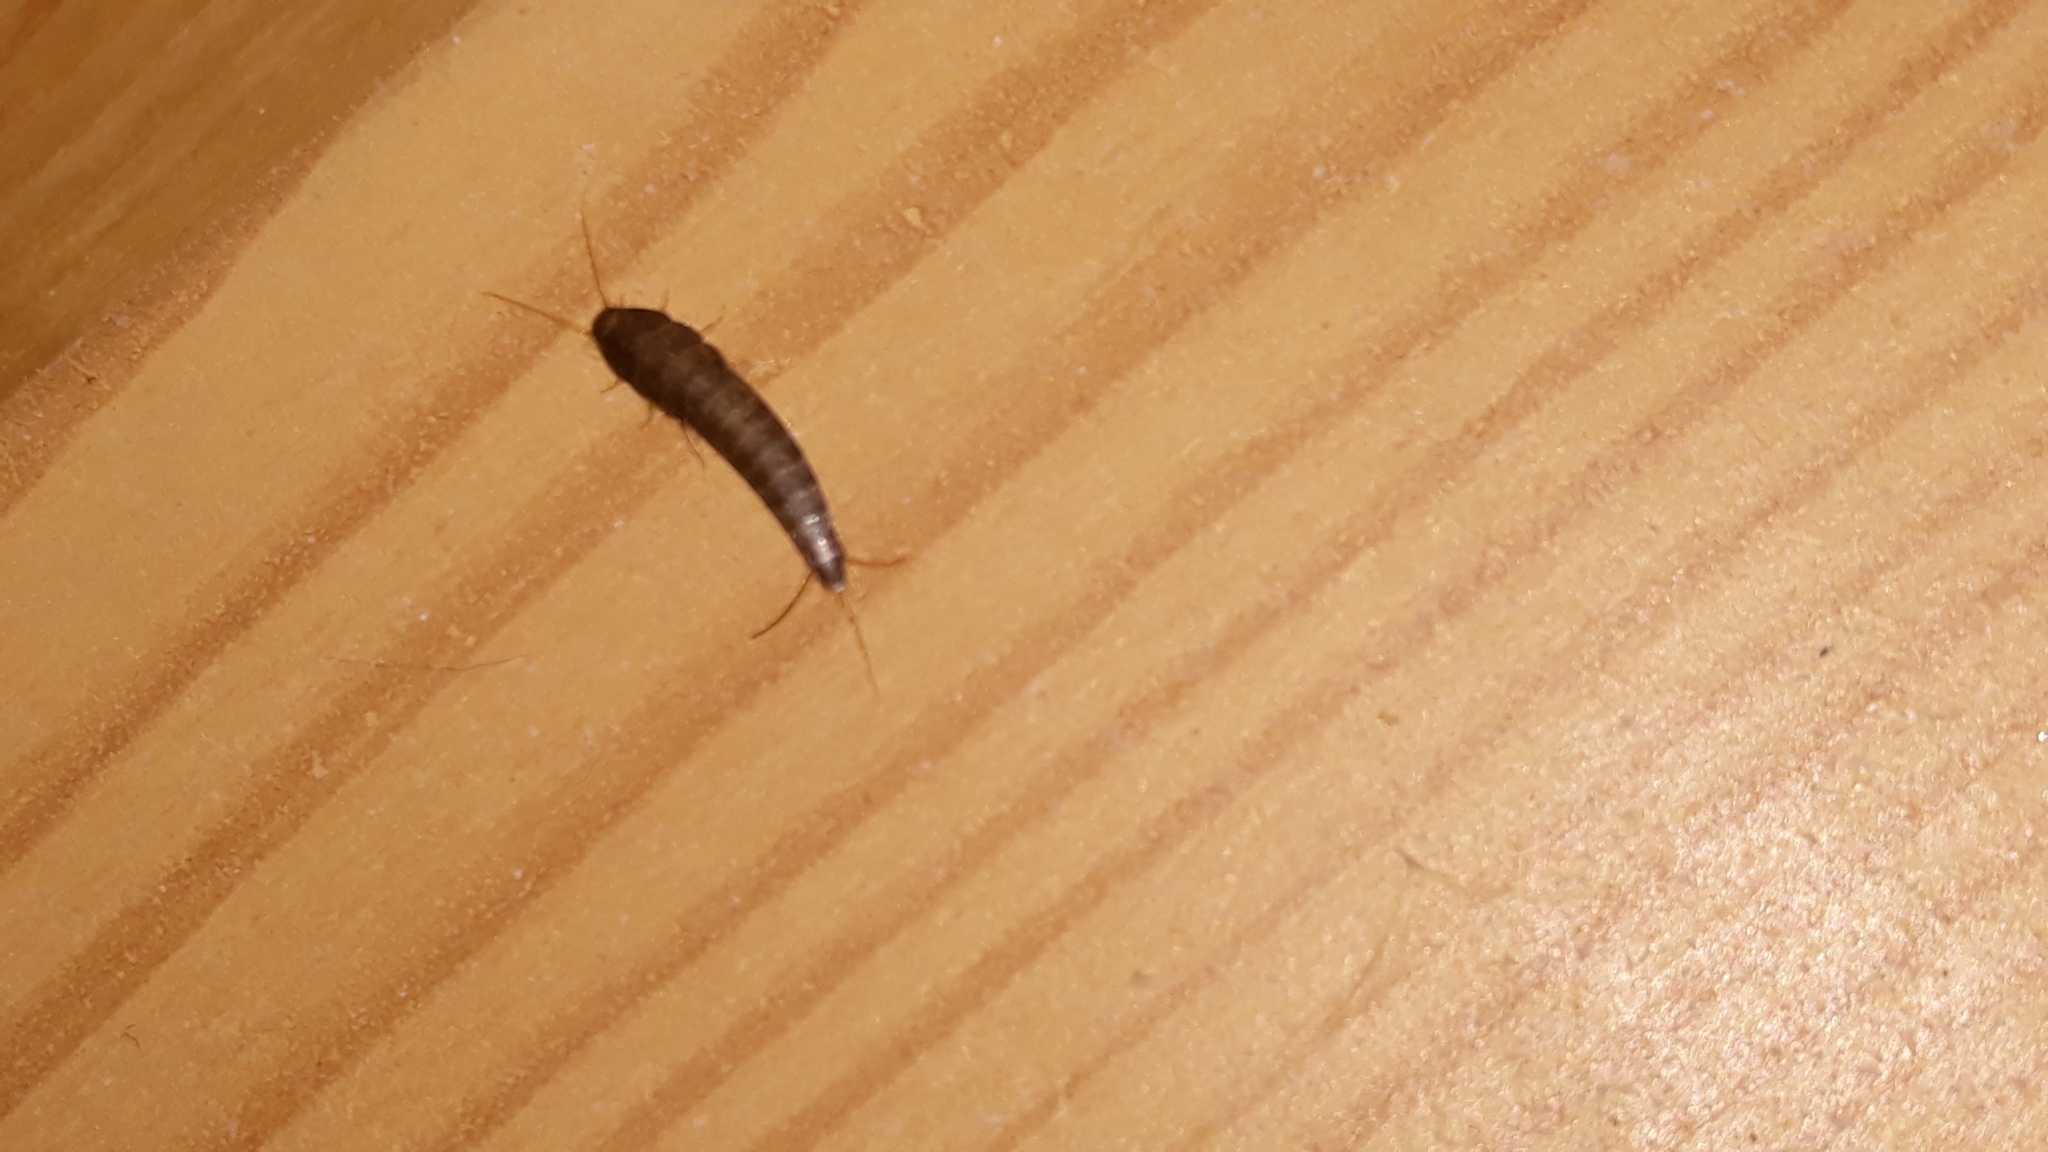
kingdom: Animalia
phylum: Arthropoda
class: Insecta
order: Zygentoma
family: Lepismatidae
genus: Lepisma
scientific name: Lepisma saccharinum
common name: Silverfish
